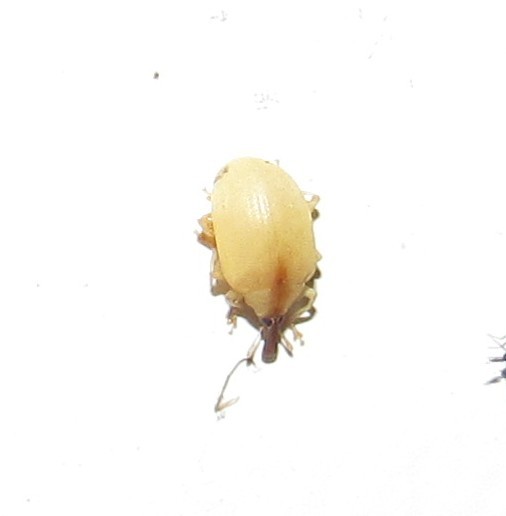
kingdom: Animalia
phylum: Arthropoda
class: Insecta
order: Coleoptera
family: Curculionidae
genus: Anchylorhynchus
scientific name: Anchylorhynchus aegrotus
